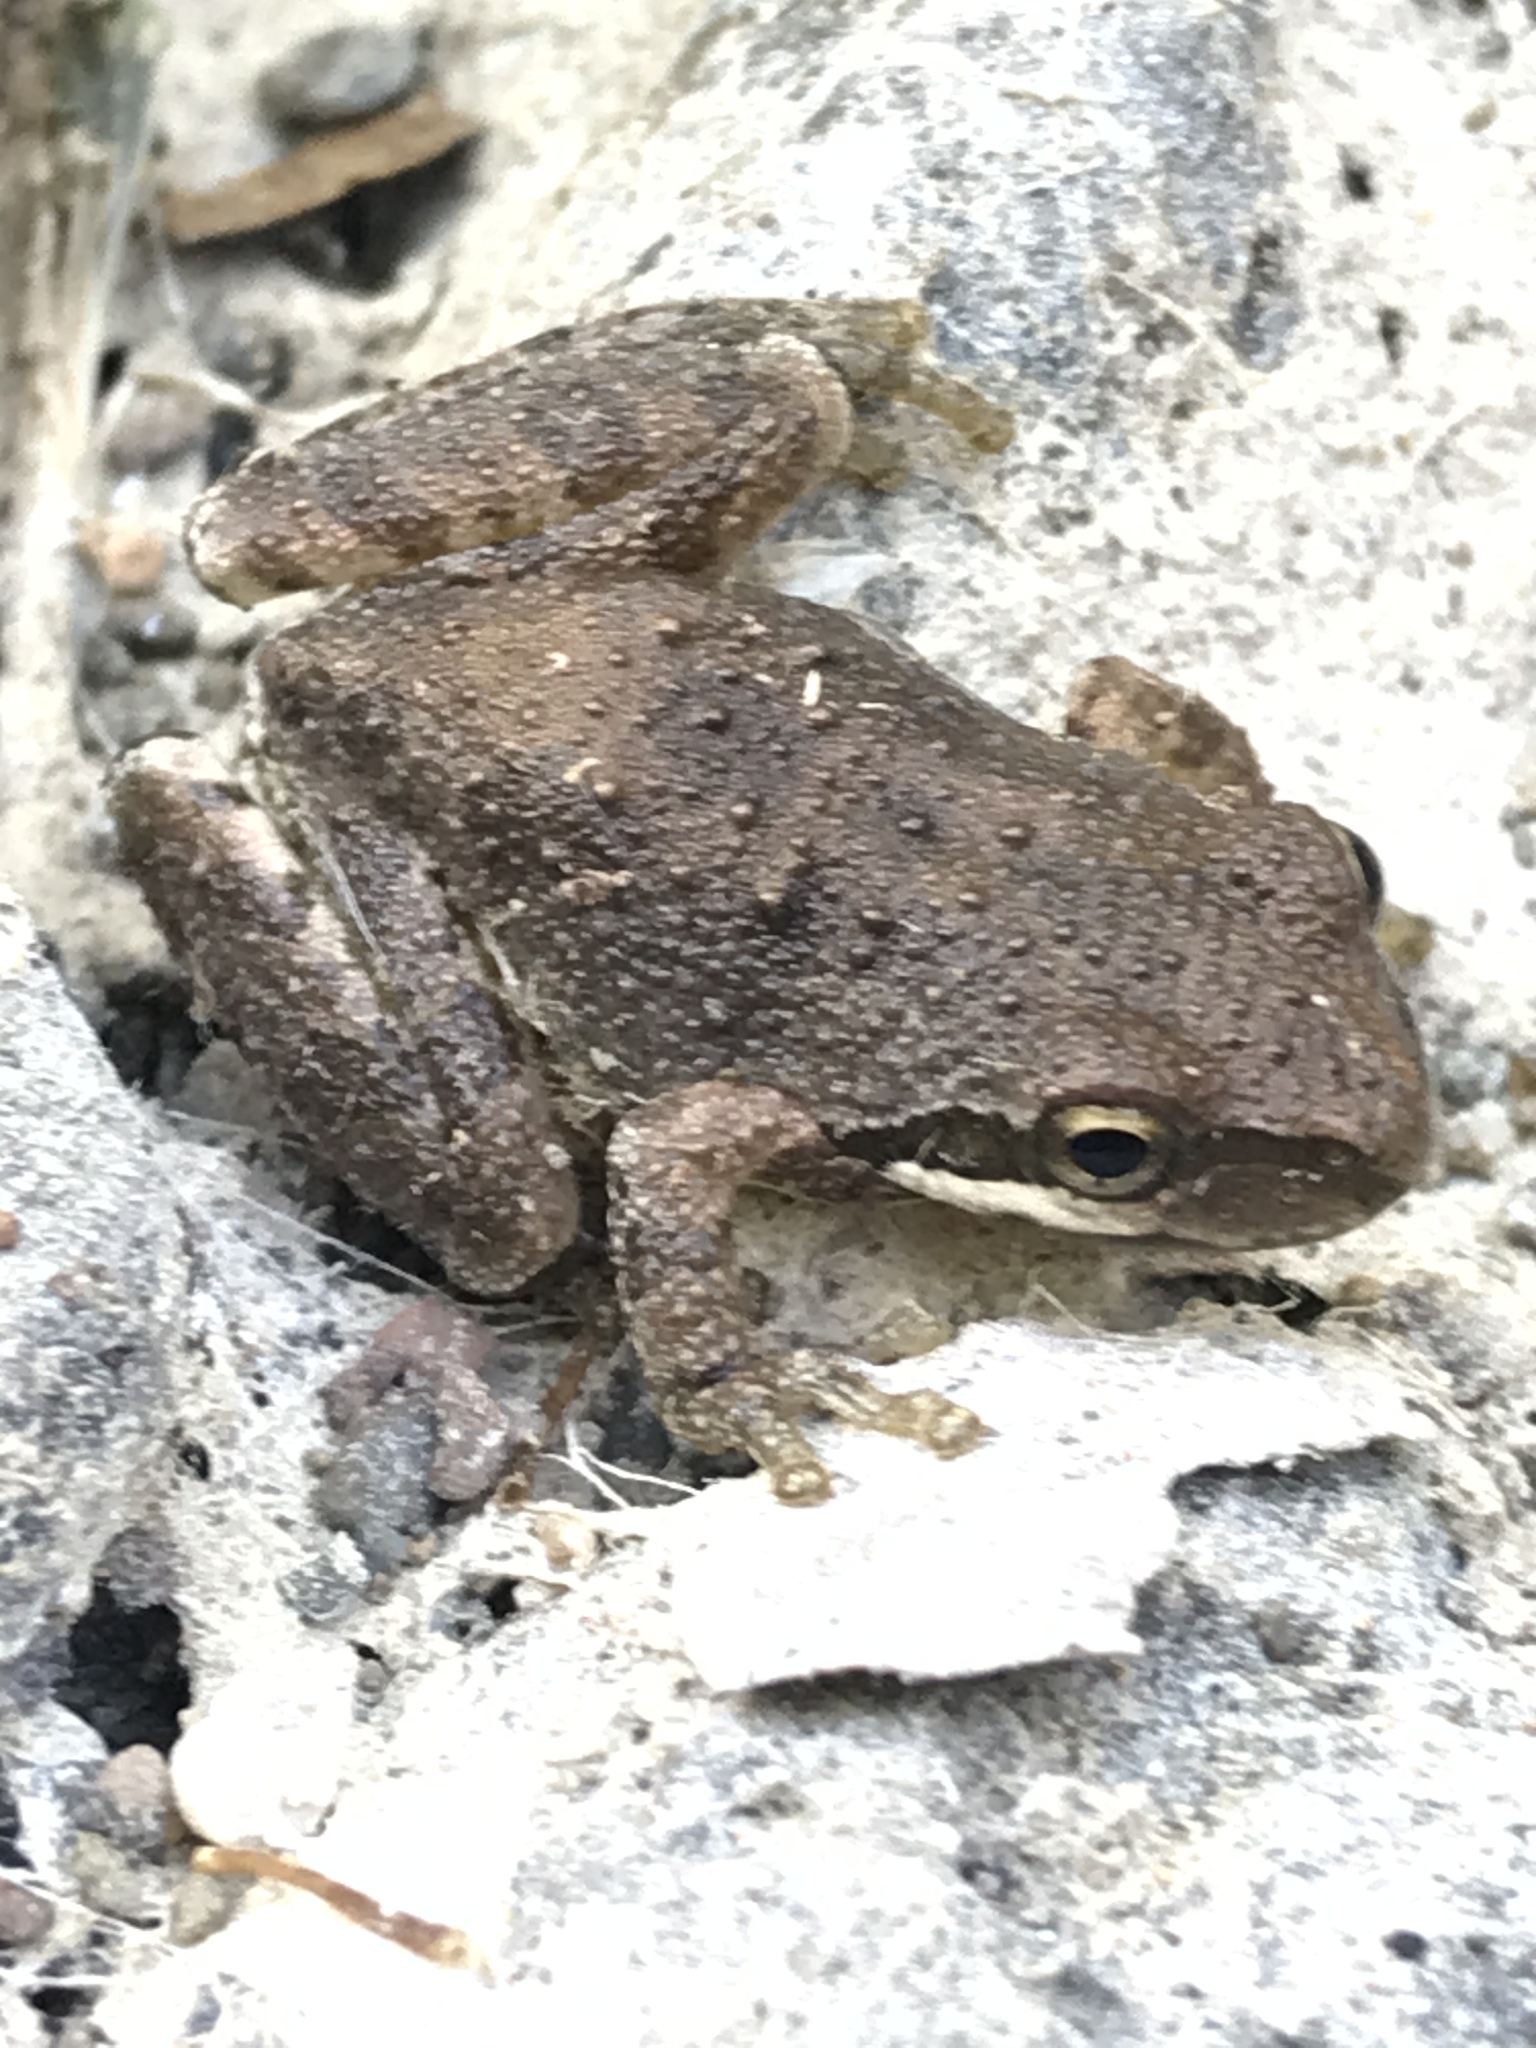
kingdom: Animalia
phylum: Chordata
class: Amphibia
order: Anura
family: Hylidae
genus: Pseudacris
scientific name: Pseudacris regilla
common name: Pacific chorus frog
